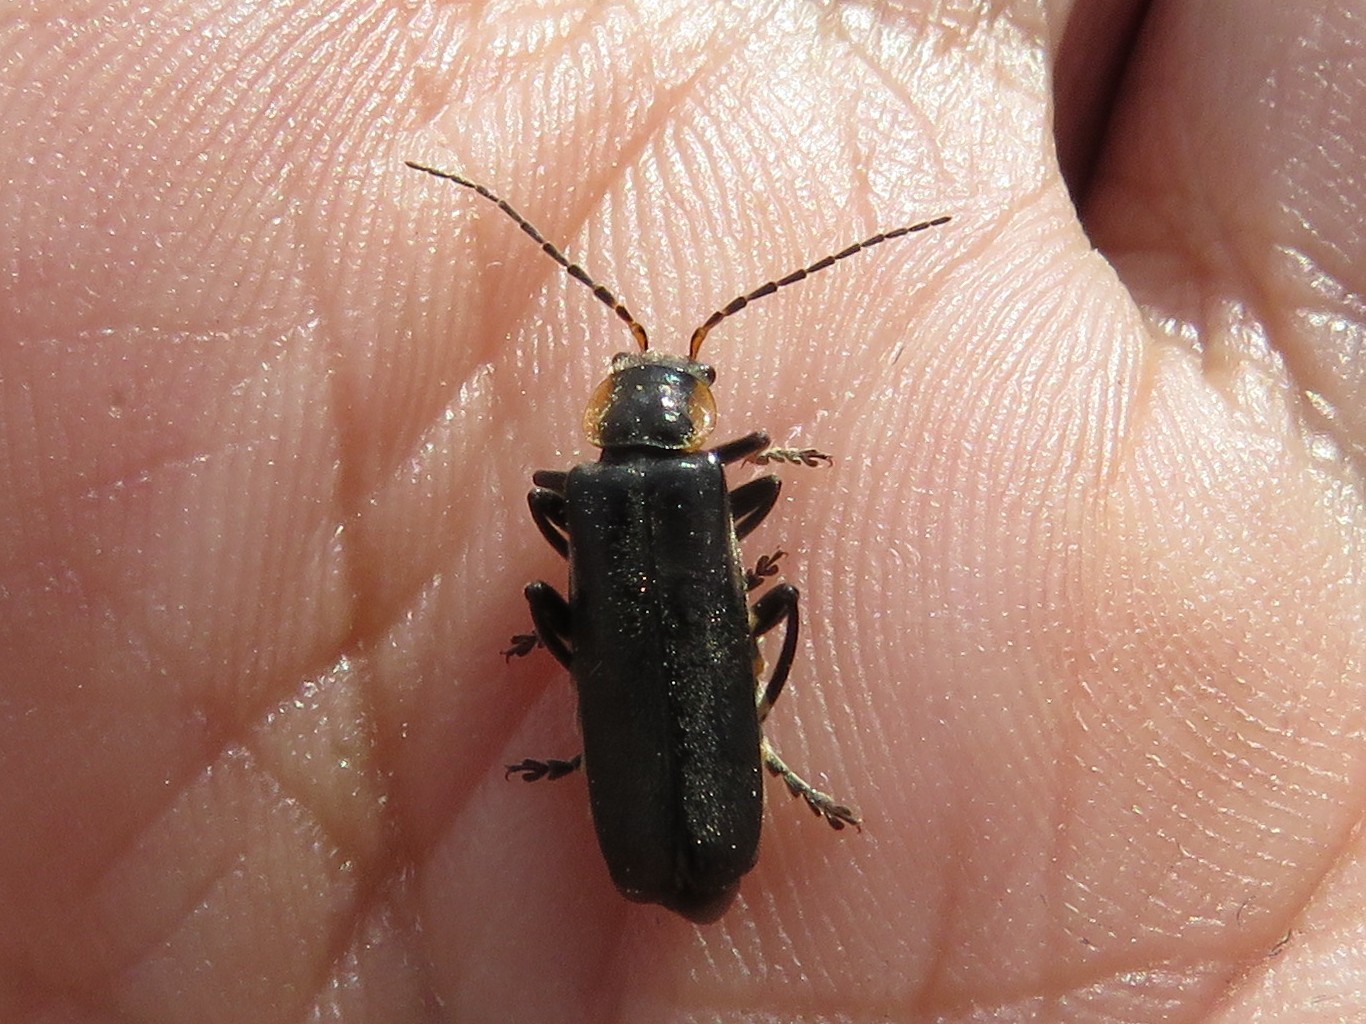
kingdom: Animalia
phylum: Arthropoda
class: Insecta
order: Coleoptera
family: Cantharidae
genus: Cantharis
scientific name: Cantharis obscura
